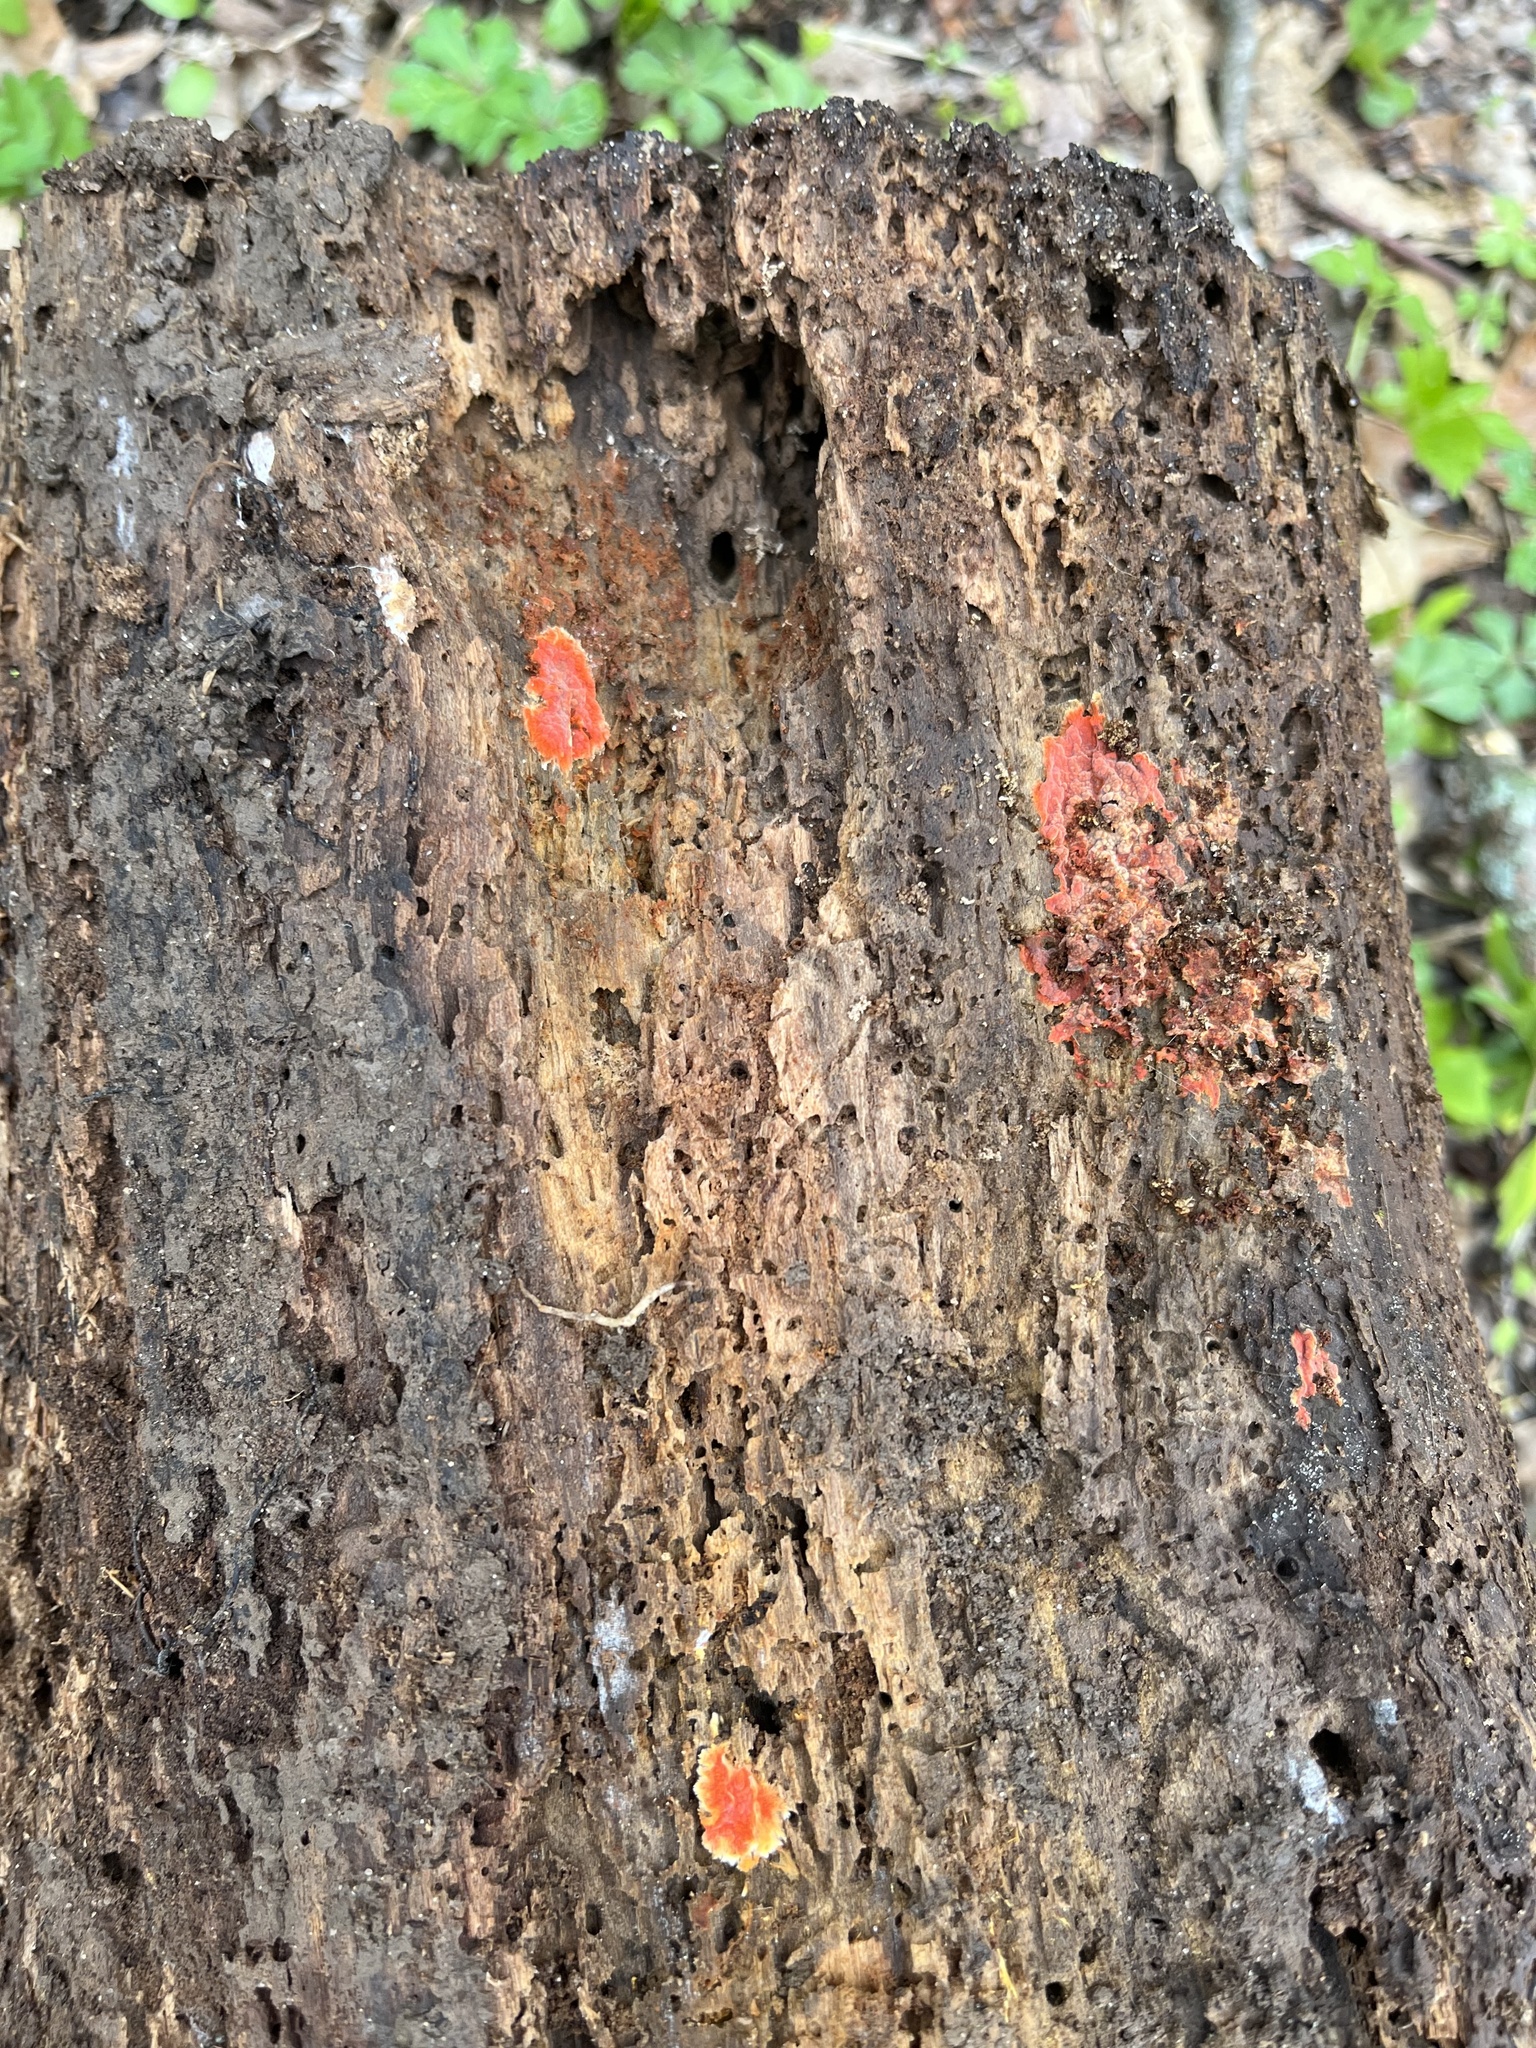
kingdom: Fungi
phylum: Basidiomycota
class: Agaricomycetes
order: Polyporales
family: Meruliaceae
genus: Phlebia
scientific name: Phlebia coccineofulva
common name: Scarlet waxcrust
